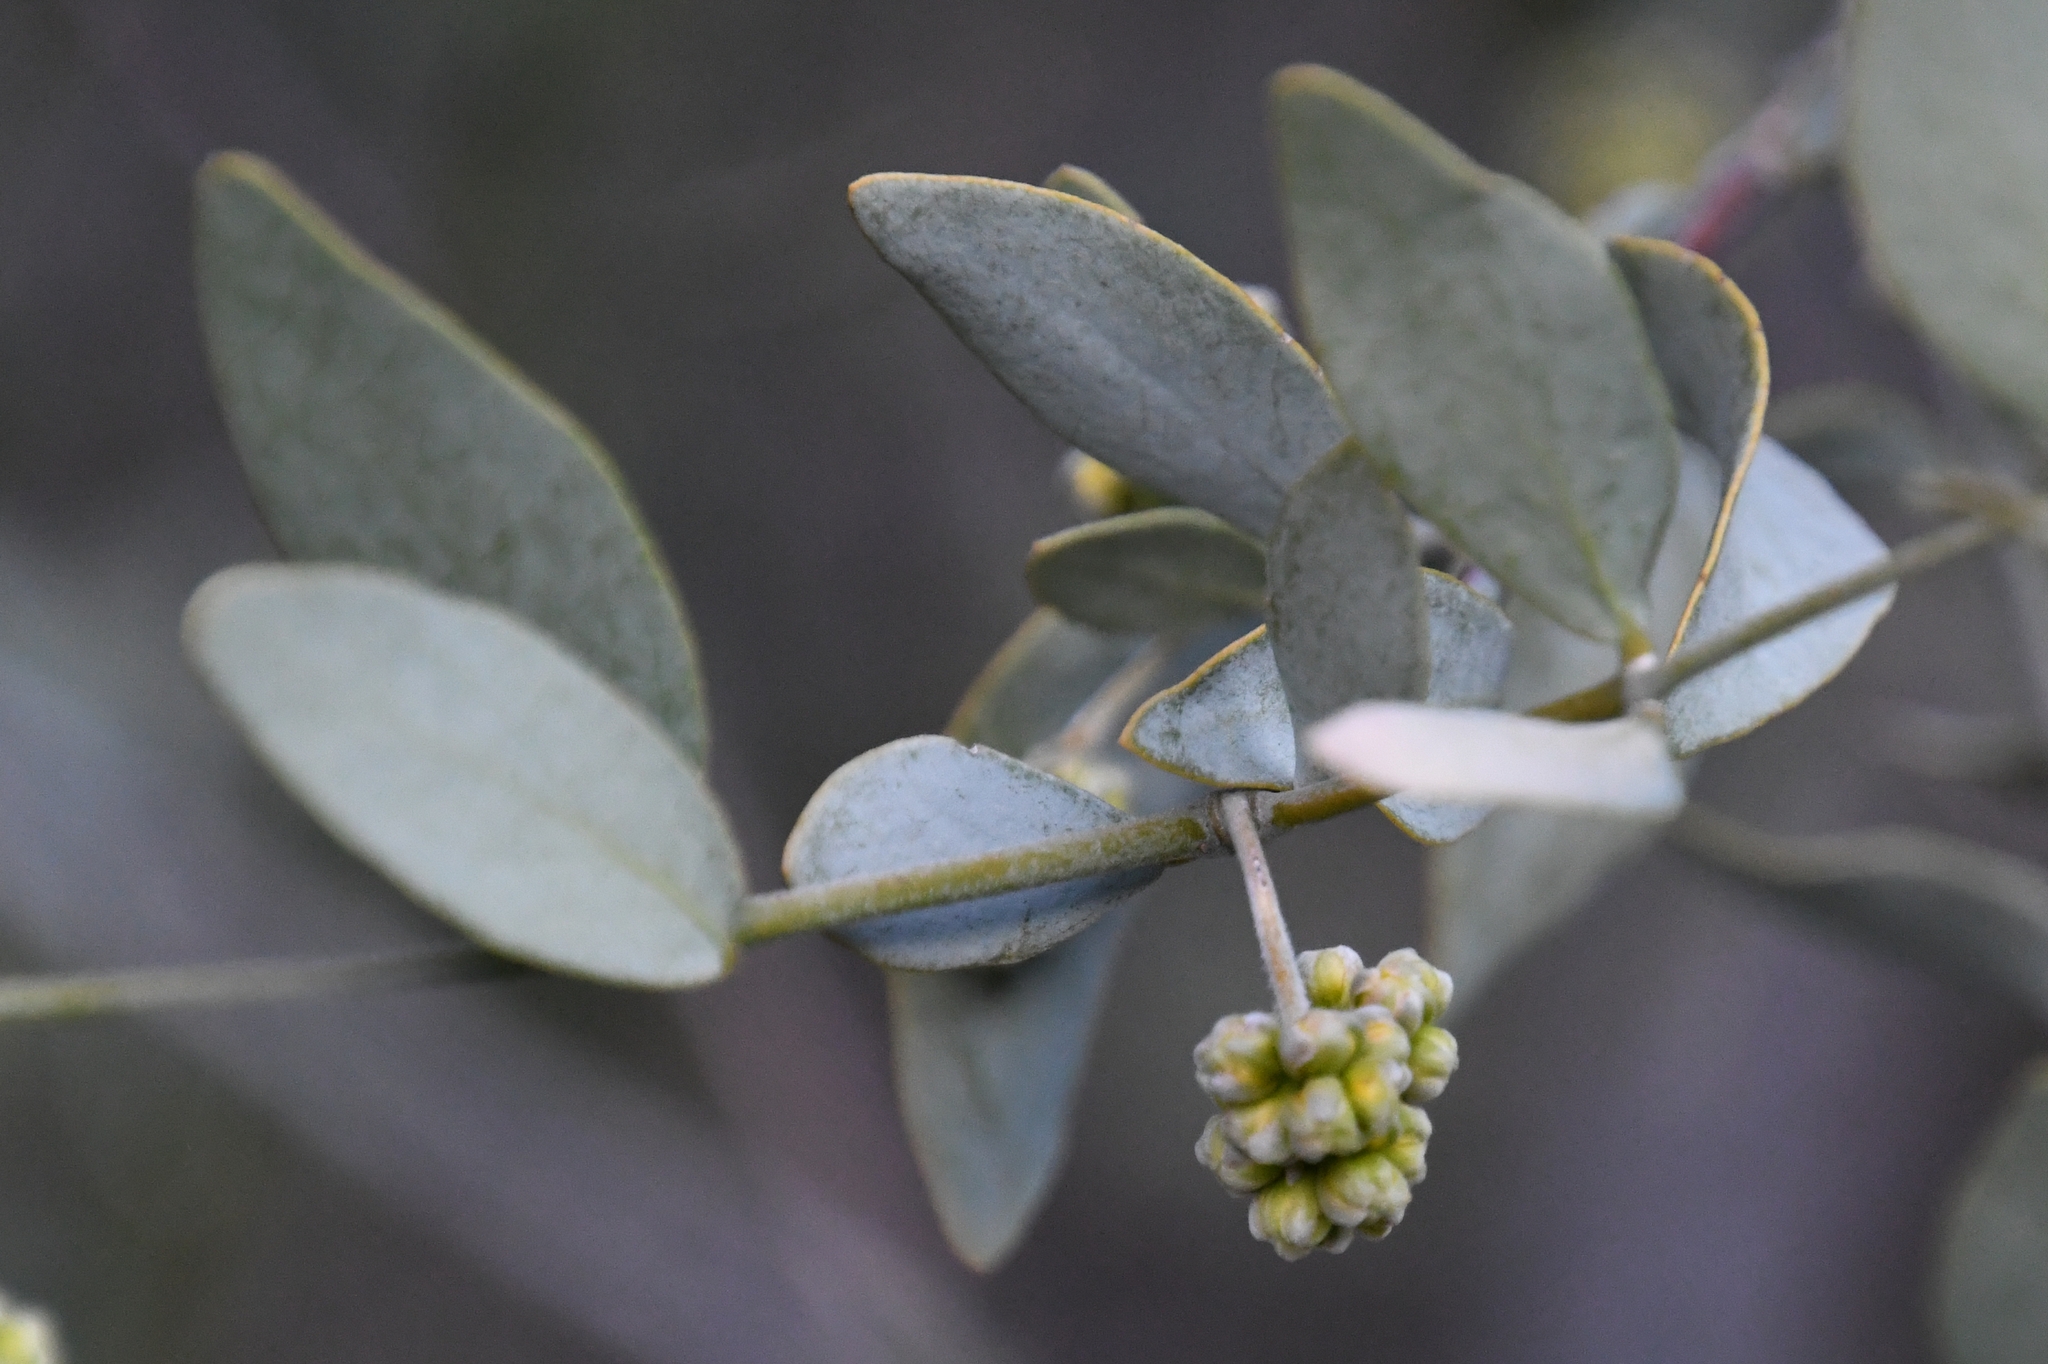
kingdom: Plantae
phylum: Tracheophyta
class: Magnoliopsida
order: Caryophyllales
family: Simmondsiaceae
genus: Simmondsia
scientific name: Simmondsia chinensis
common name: Jojoba
